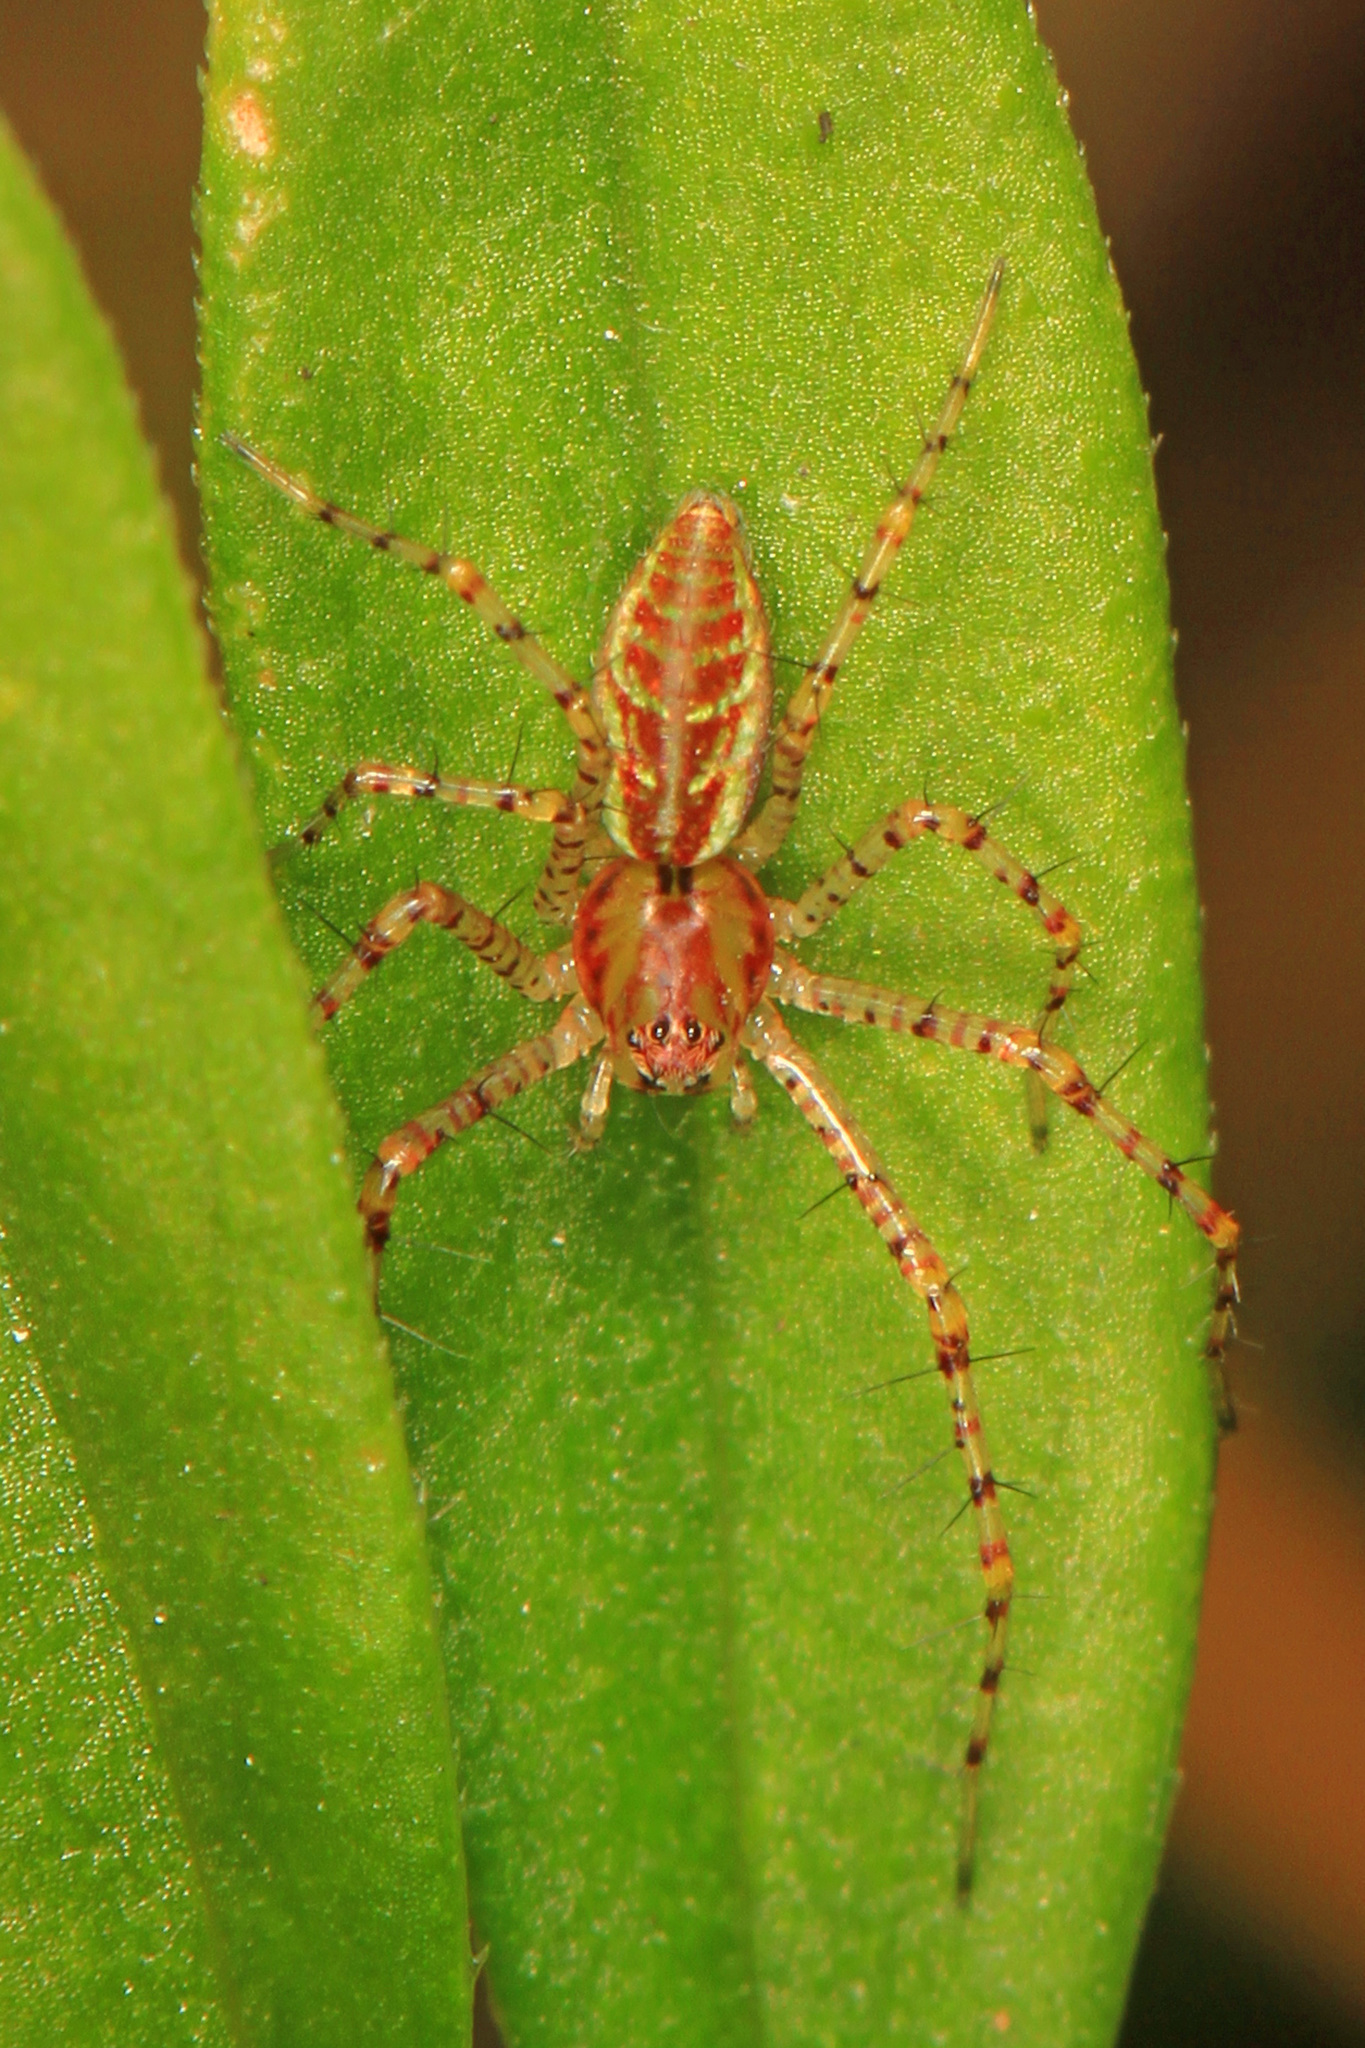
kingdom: Animalia
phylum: Arthropoda
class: Arachnida
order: Araneae
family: Oxyopidae
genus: Peucetia
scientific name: Peucetia viridans
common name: Lynx spiders
